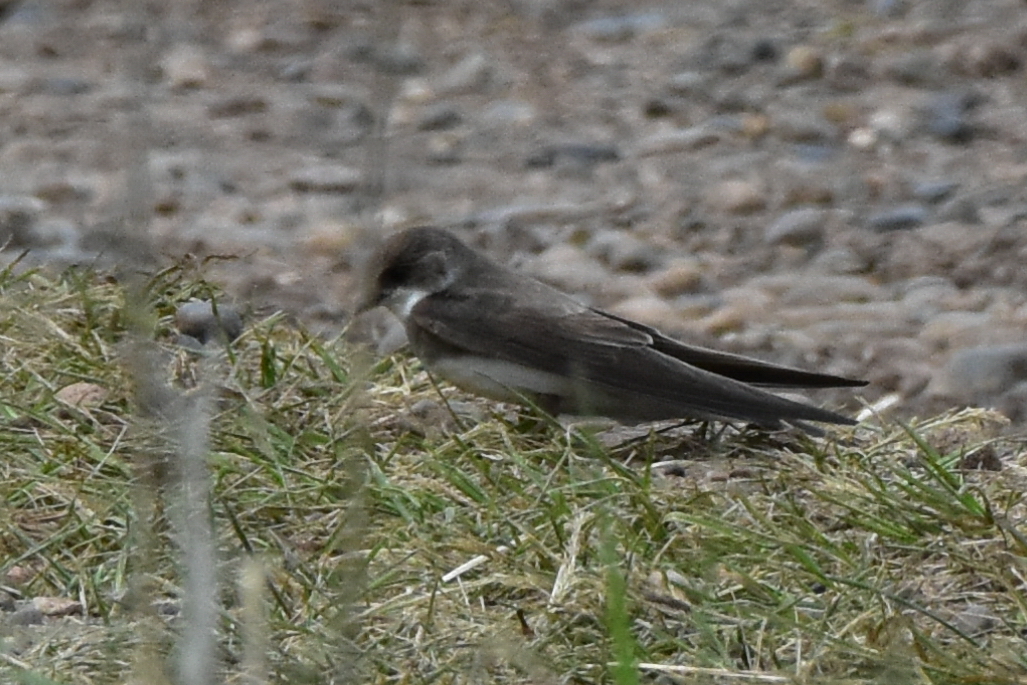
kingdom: Animalia
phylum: Chordata
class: Aves
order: Passeriformes
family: Hirundinidae
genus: Riparia
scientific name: Riparia riparia
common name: Sand martin
